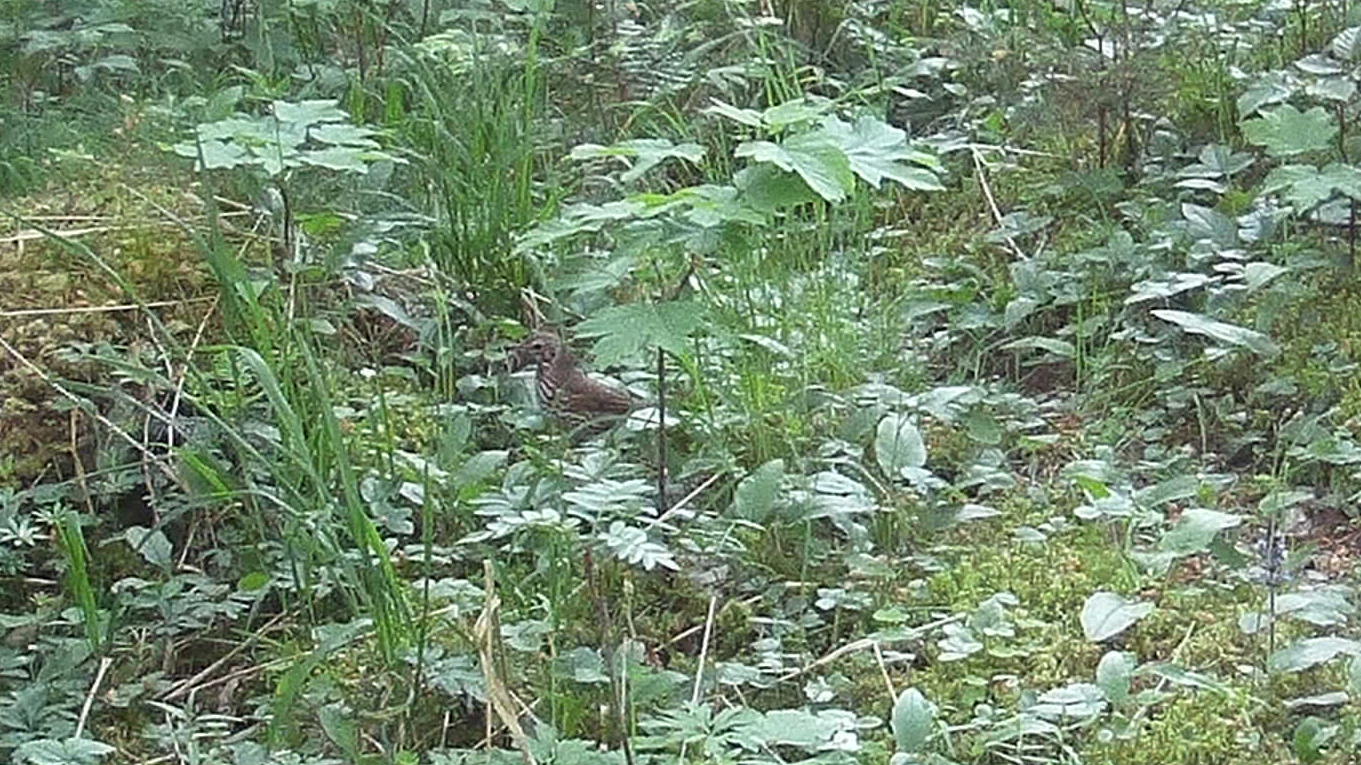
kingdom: Animalia
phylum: Chordata
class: Aves
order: Passeriformes
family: Turdidae
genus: Turdus
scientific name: Turdus philomelos
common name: Song thrush
